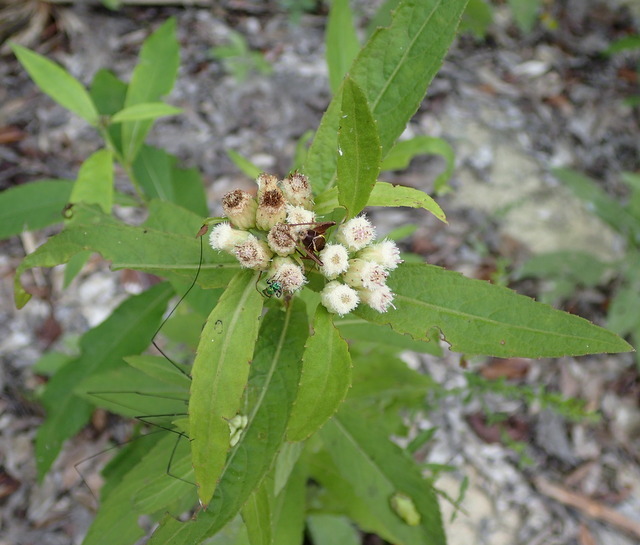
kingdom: Plantae
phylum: Tracheophyta
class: Magnoliopsida
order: Asterales
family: Asteraceae
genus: Pluchea
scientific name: Pluchea foetida
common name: Stinking camphorweed
